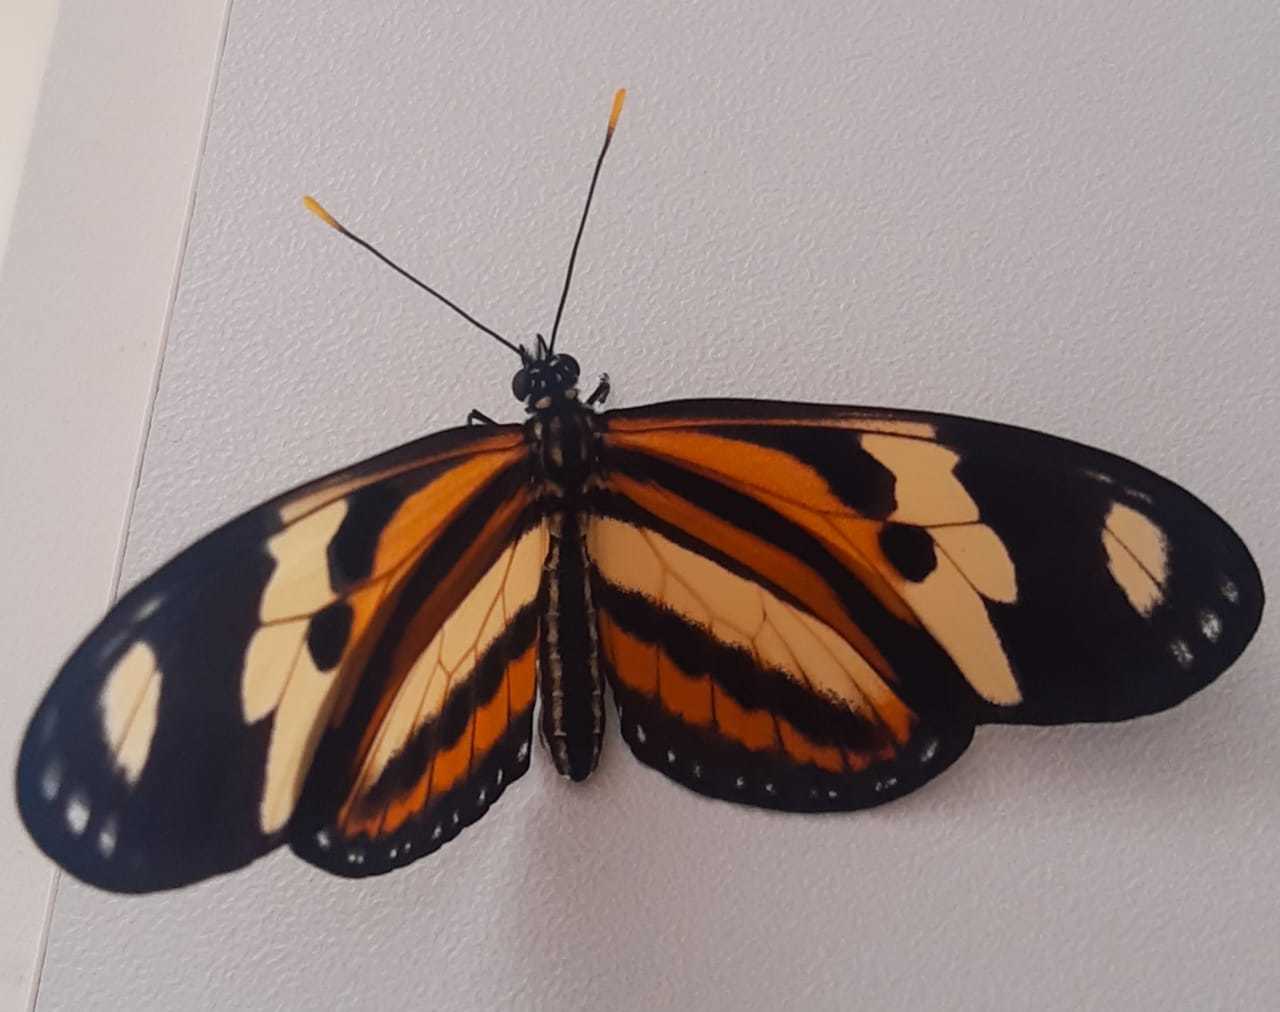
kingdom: Animalia
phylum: Arthropoda
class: Insecta
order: Lepidoptera
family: Nymphalidae
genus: Eueides
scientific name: Eueides isabella
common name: Isabella's longwing
